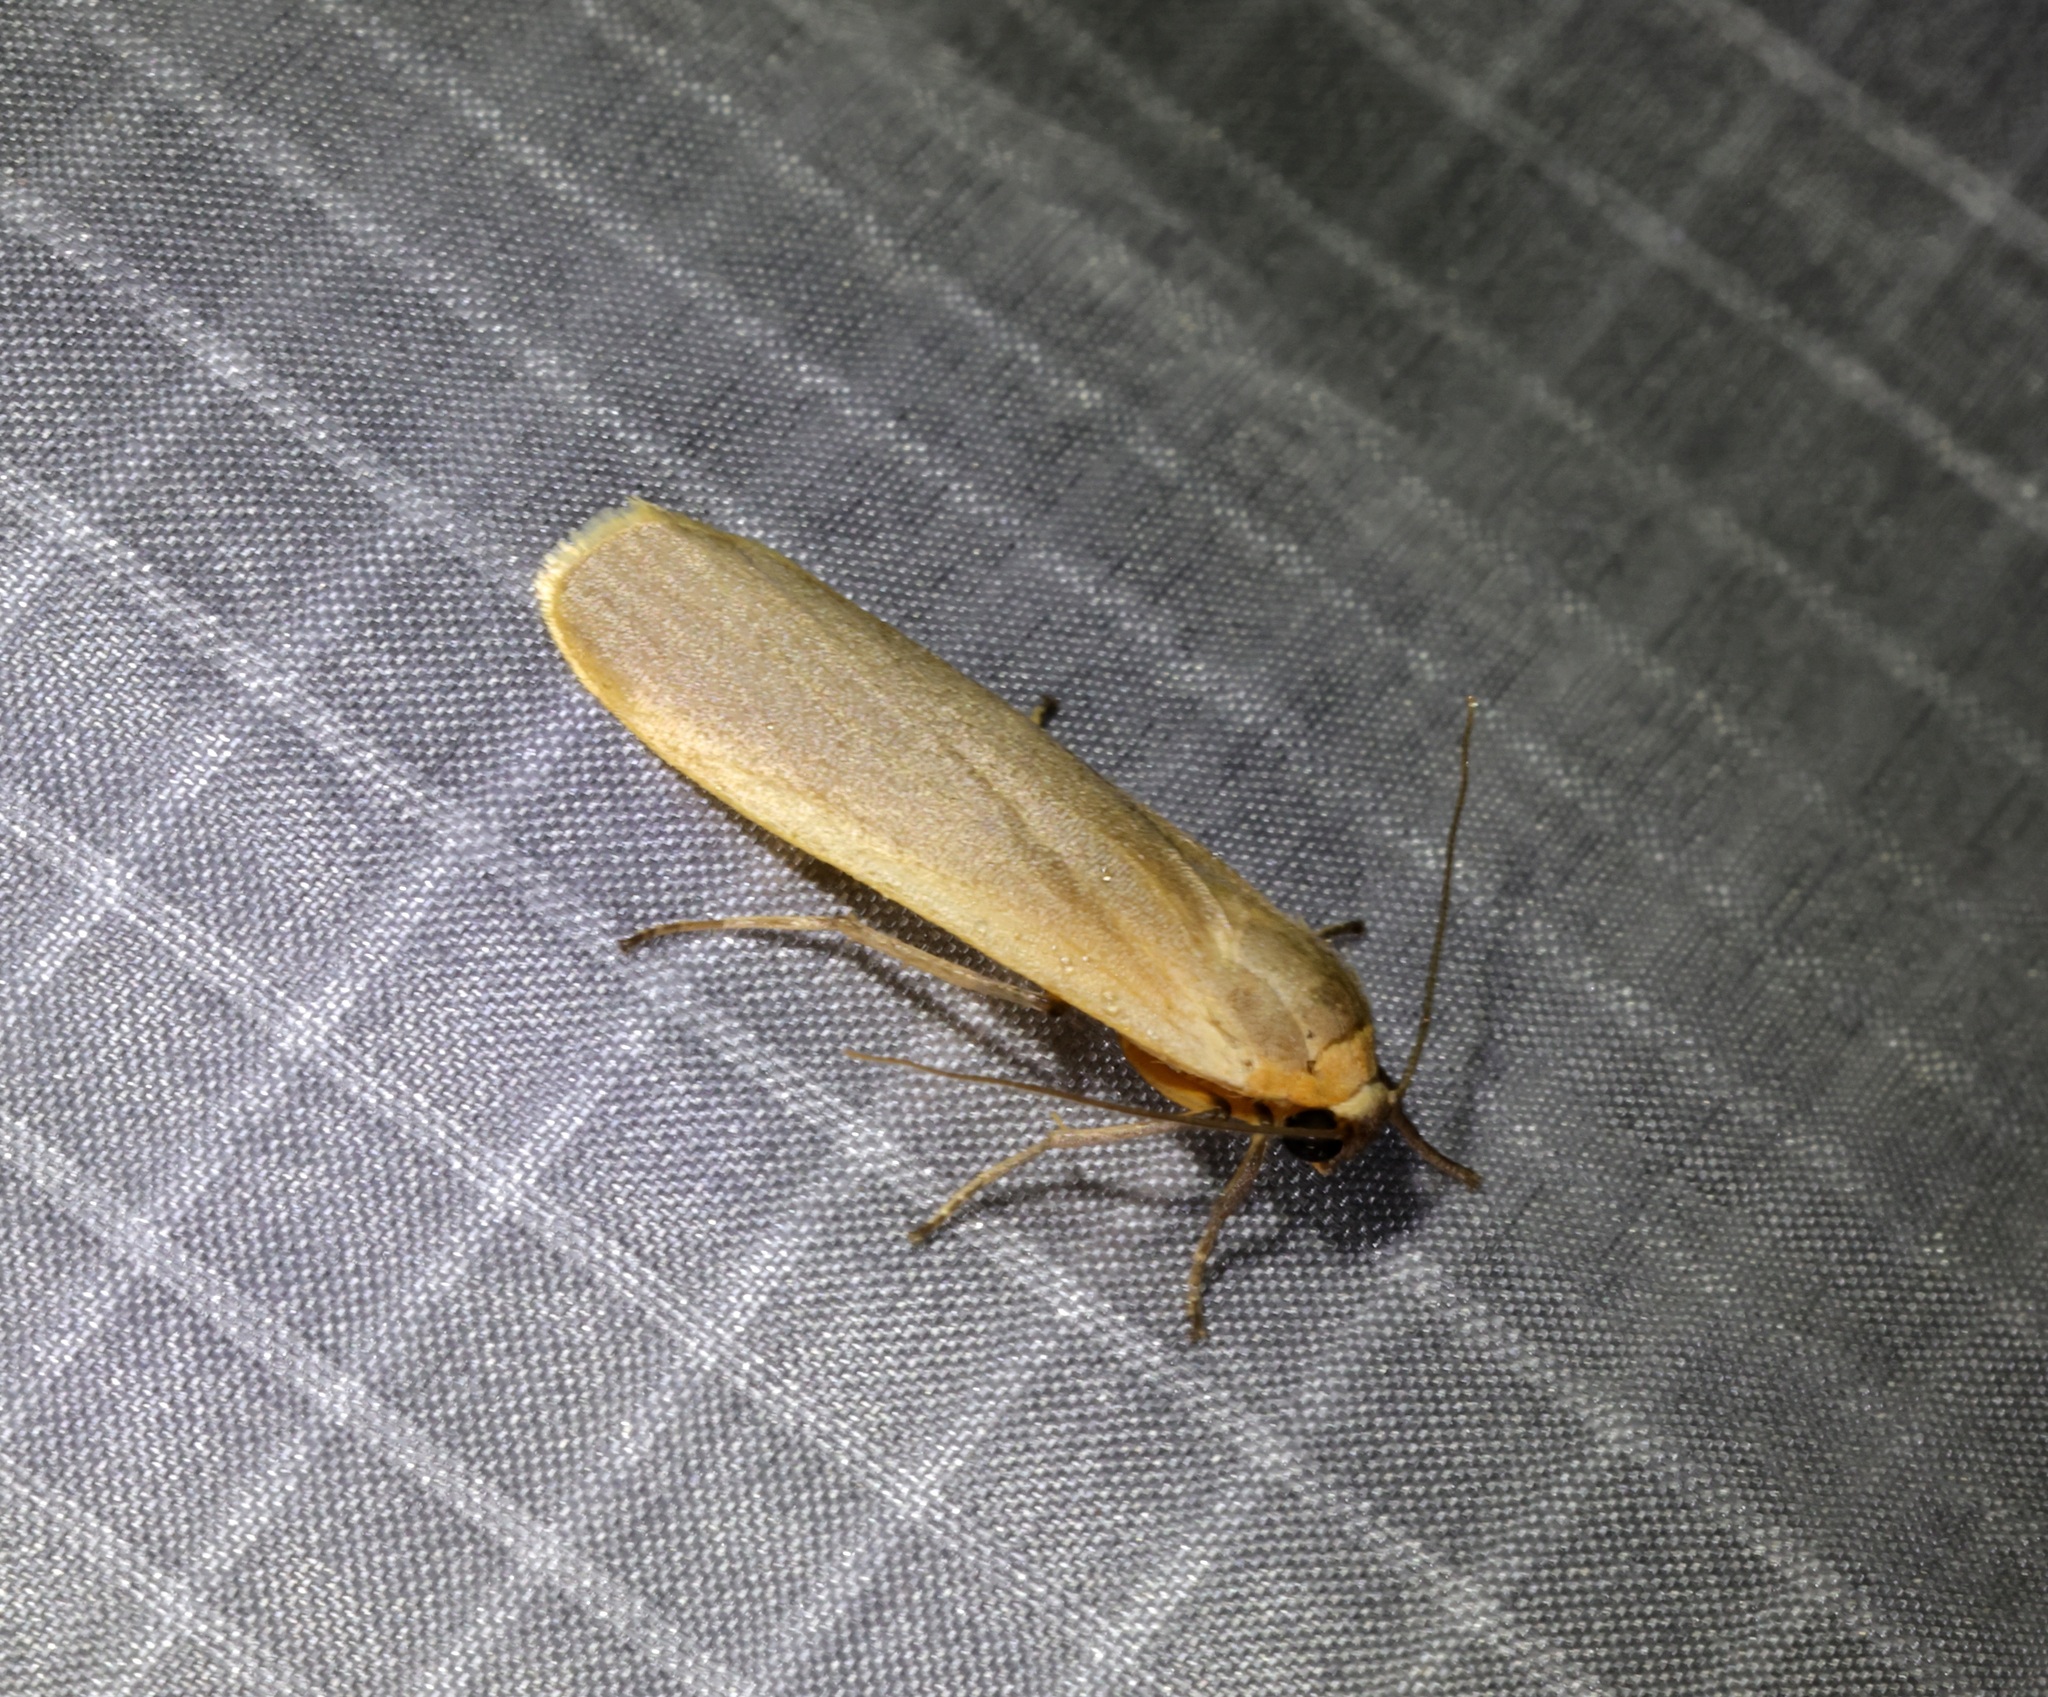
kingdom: Animalia
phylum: Arthropoda
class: Insecta
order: Lepidoptera
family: Erebidae
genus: Brunia
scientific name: Brunia antica
